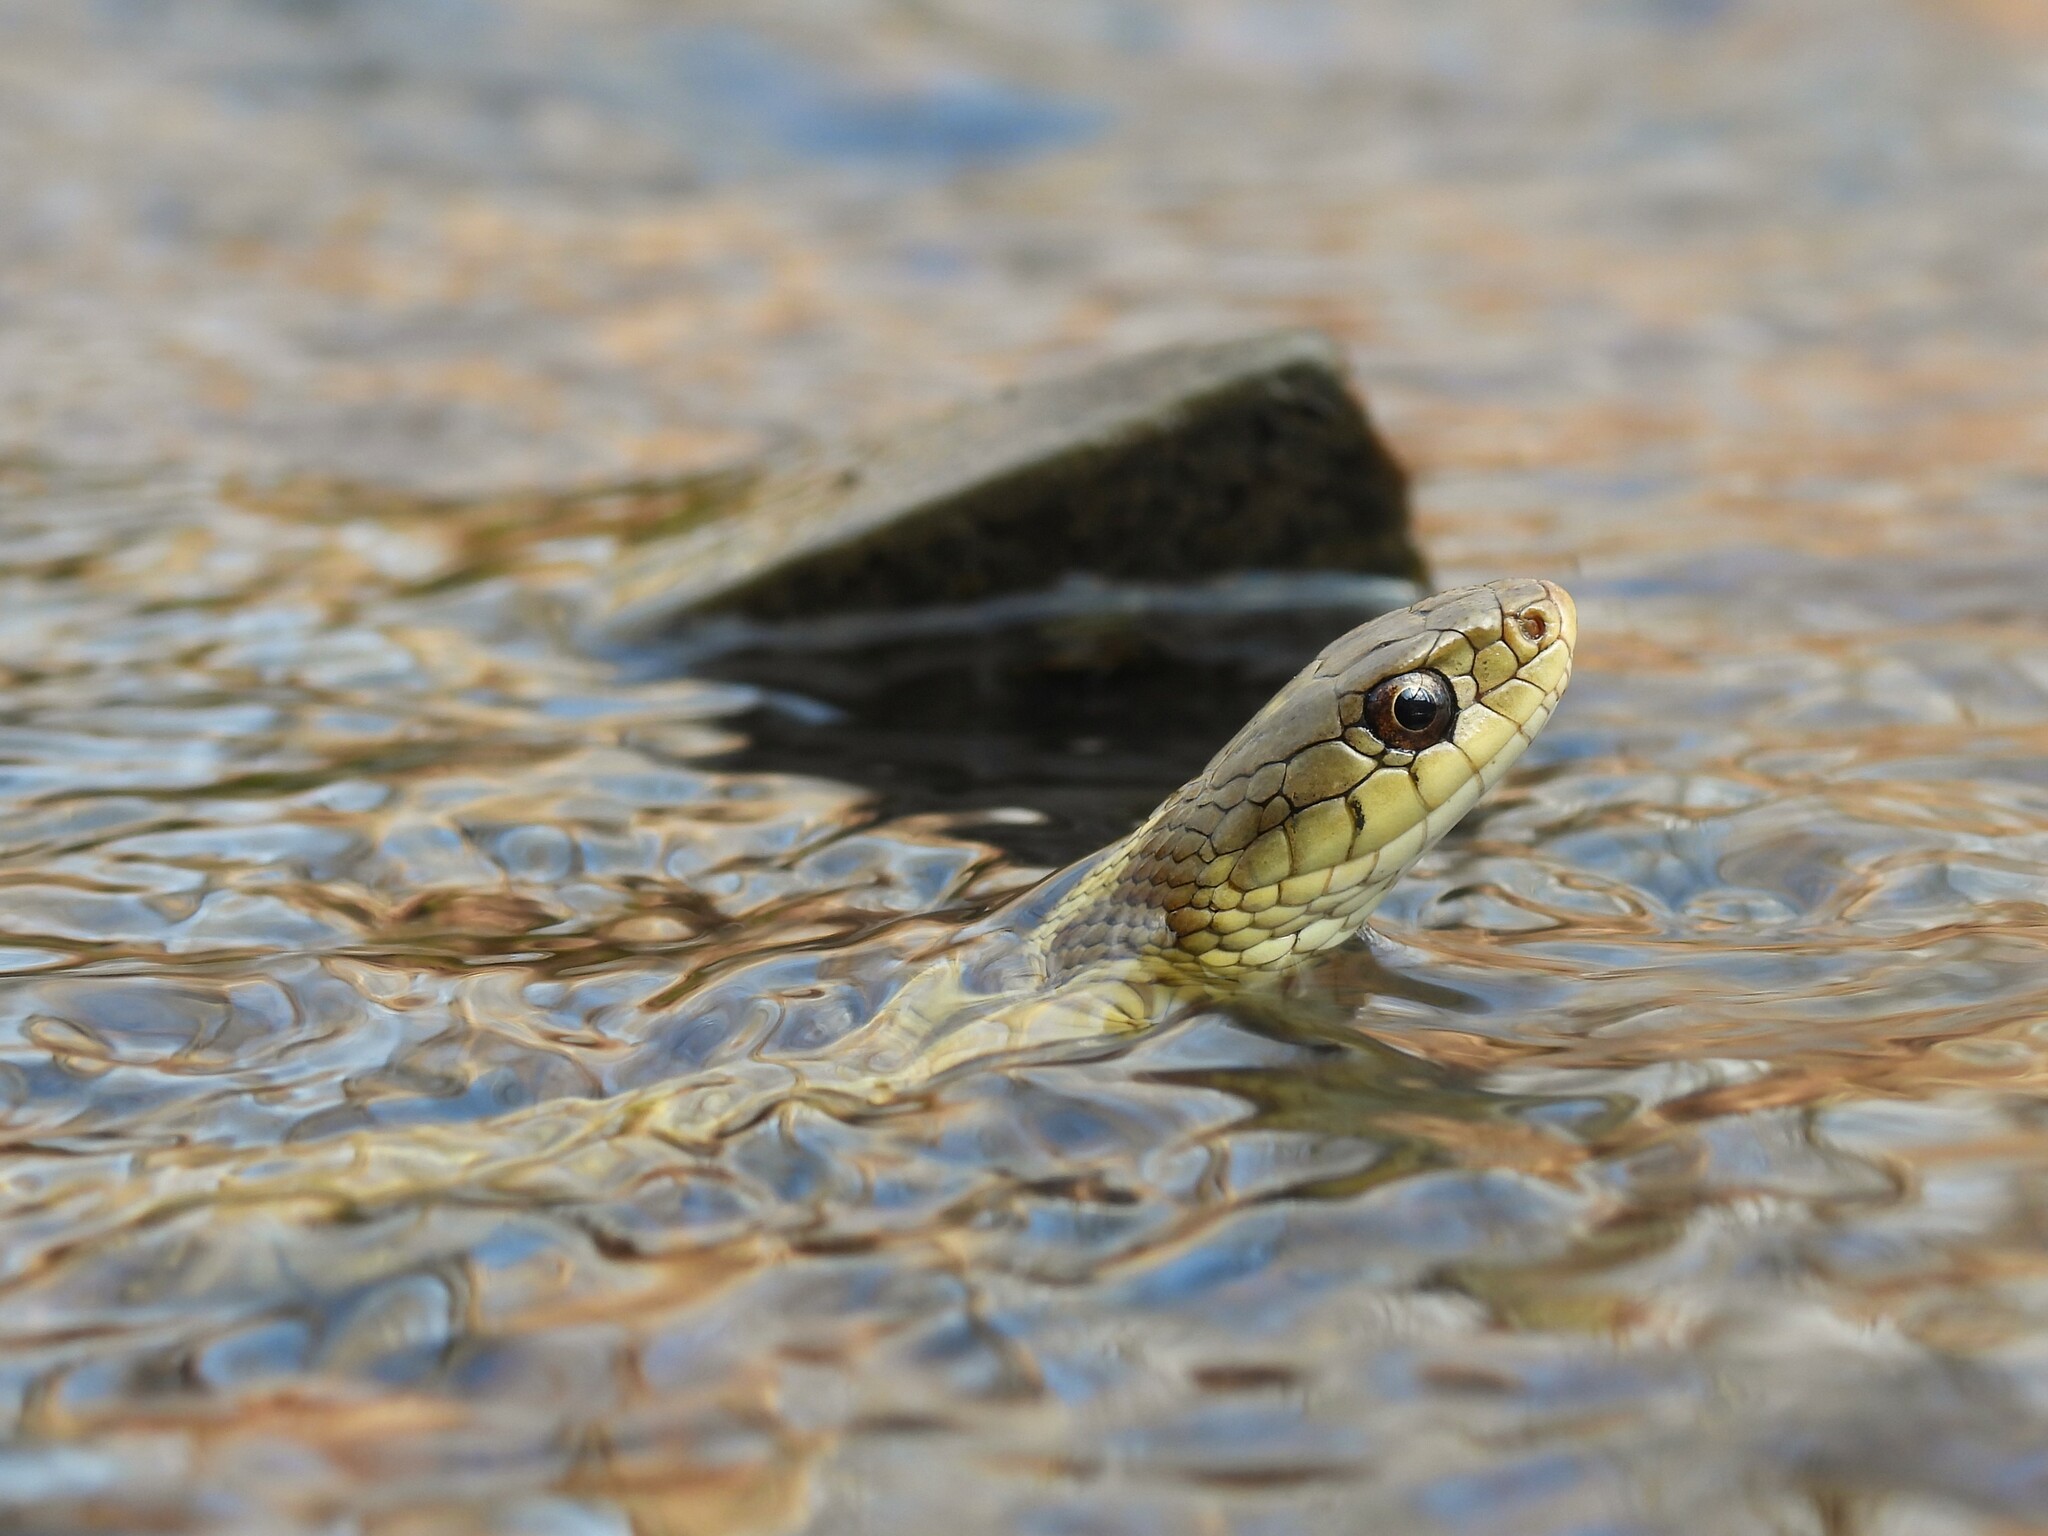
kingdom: Animalia
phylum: Chordata
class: Squamata
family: Colubridae
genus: Thamnophis
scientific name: Thamnophis sirtalis
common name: Common garter snake
